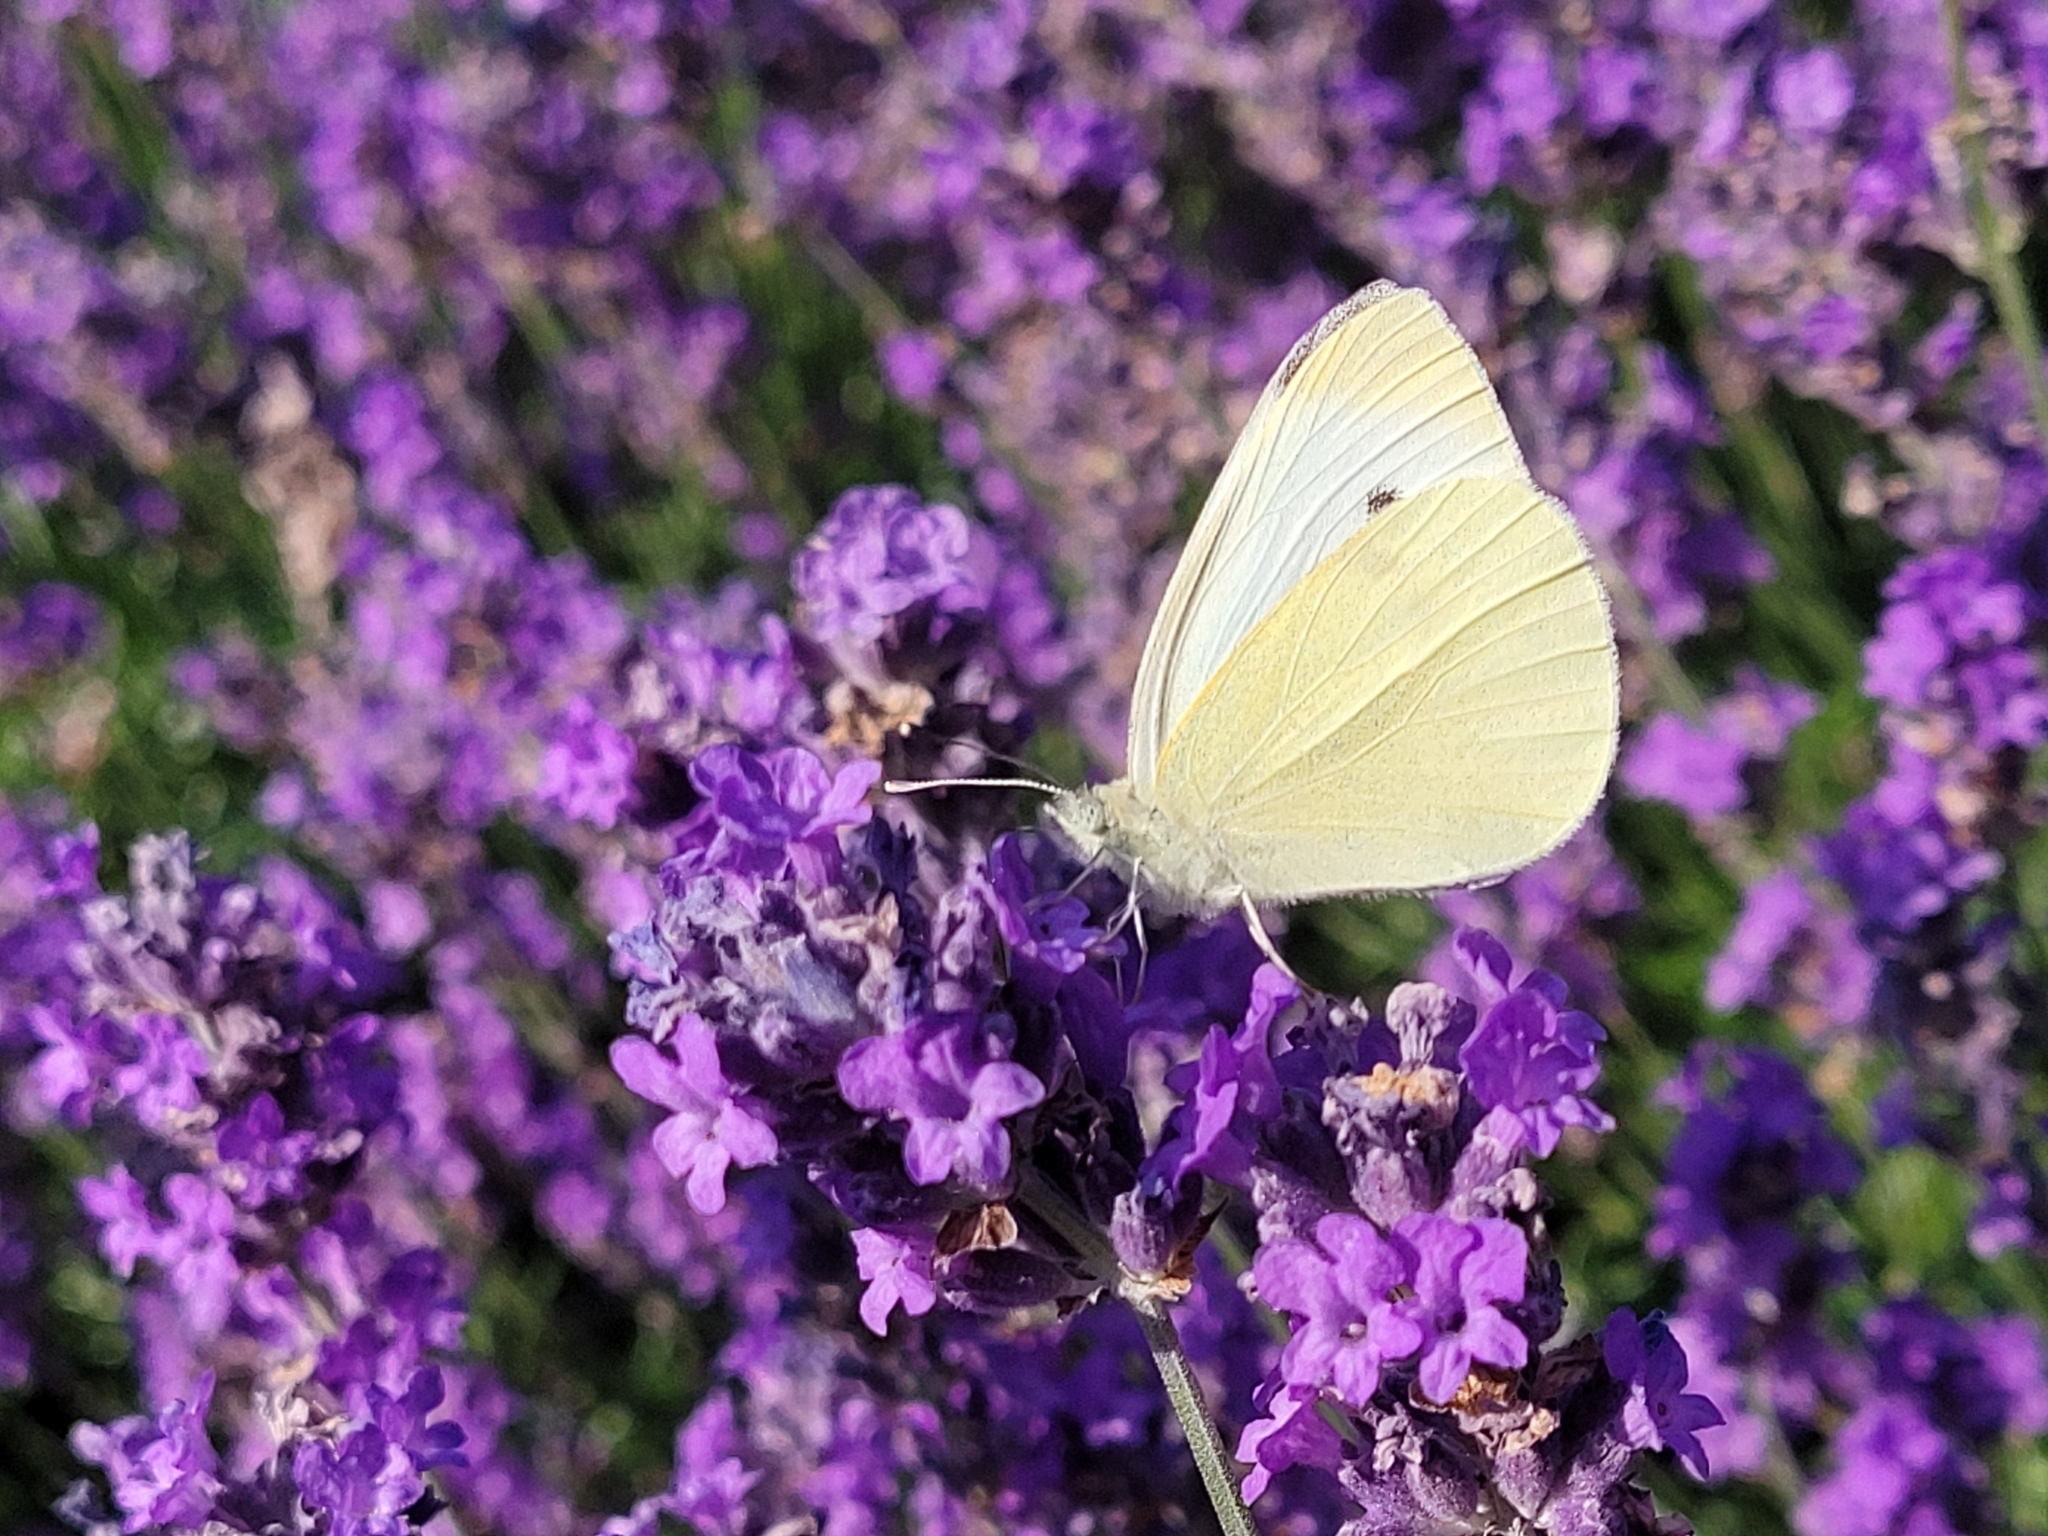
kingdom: Animalia
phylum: Arthropoda
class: Insecta
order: Lepidoptera
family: Pieridae
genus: Pieris
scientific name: Pieris rapae
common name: Small white
